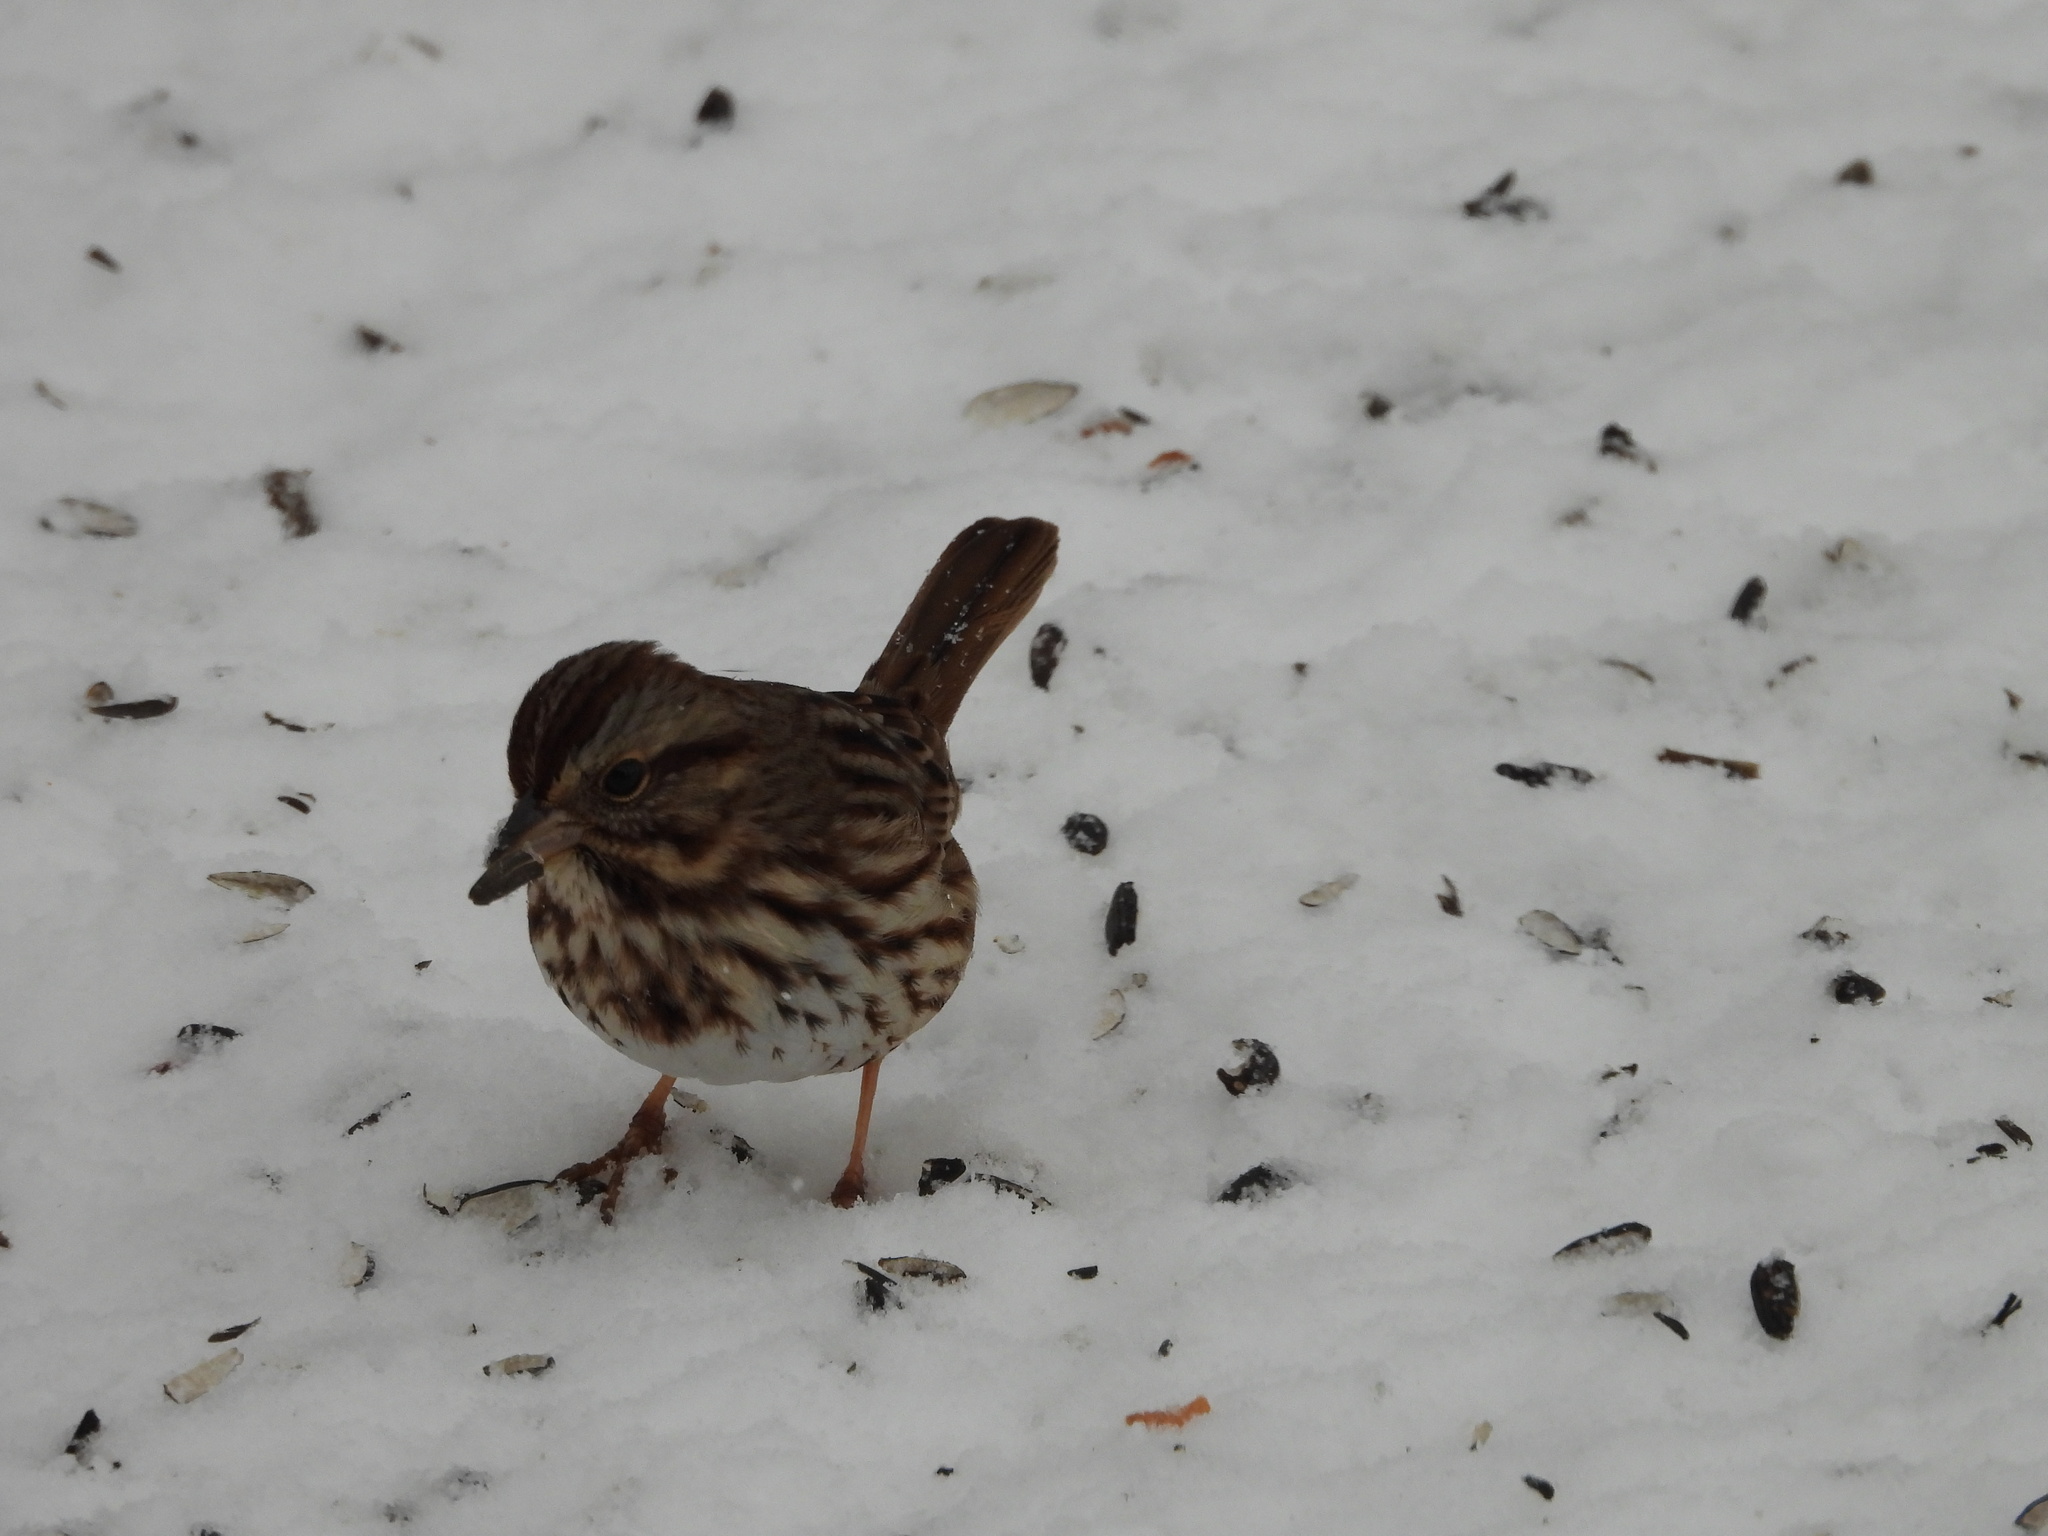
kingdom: Animalia
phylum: Chordata
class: Aves
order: Passeriformes
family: Passerellidae
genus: Melospiza
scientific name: Melospiza melodia
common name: Song sparrow
